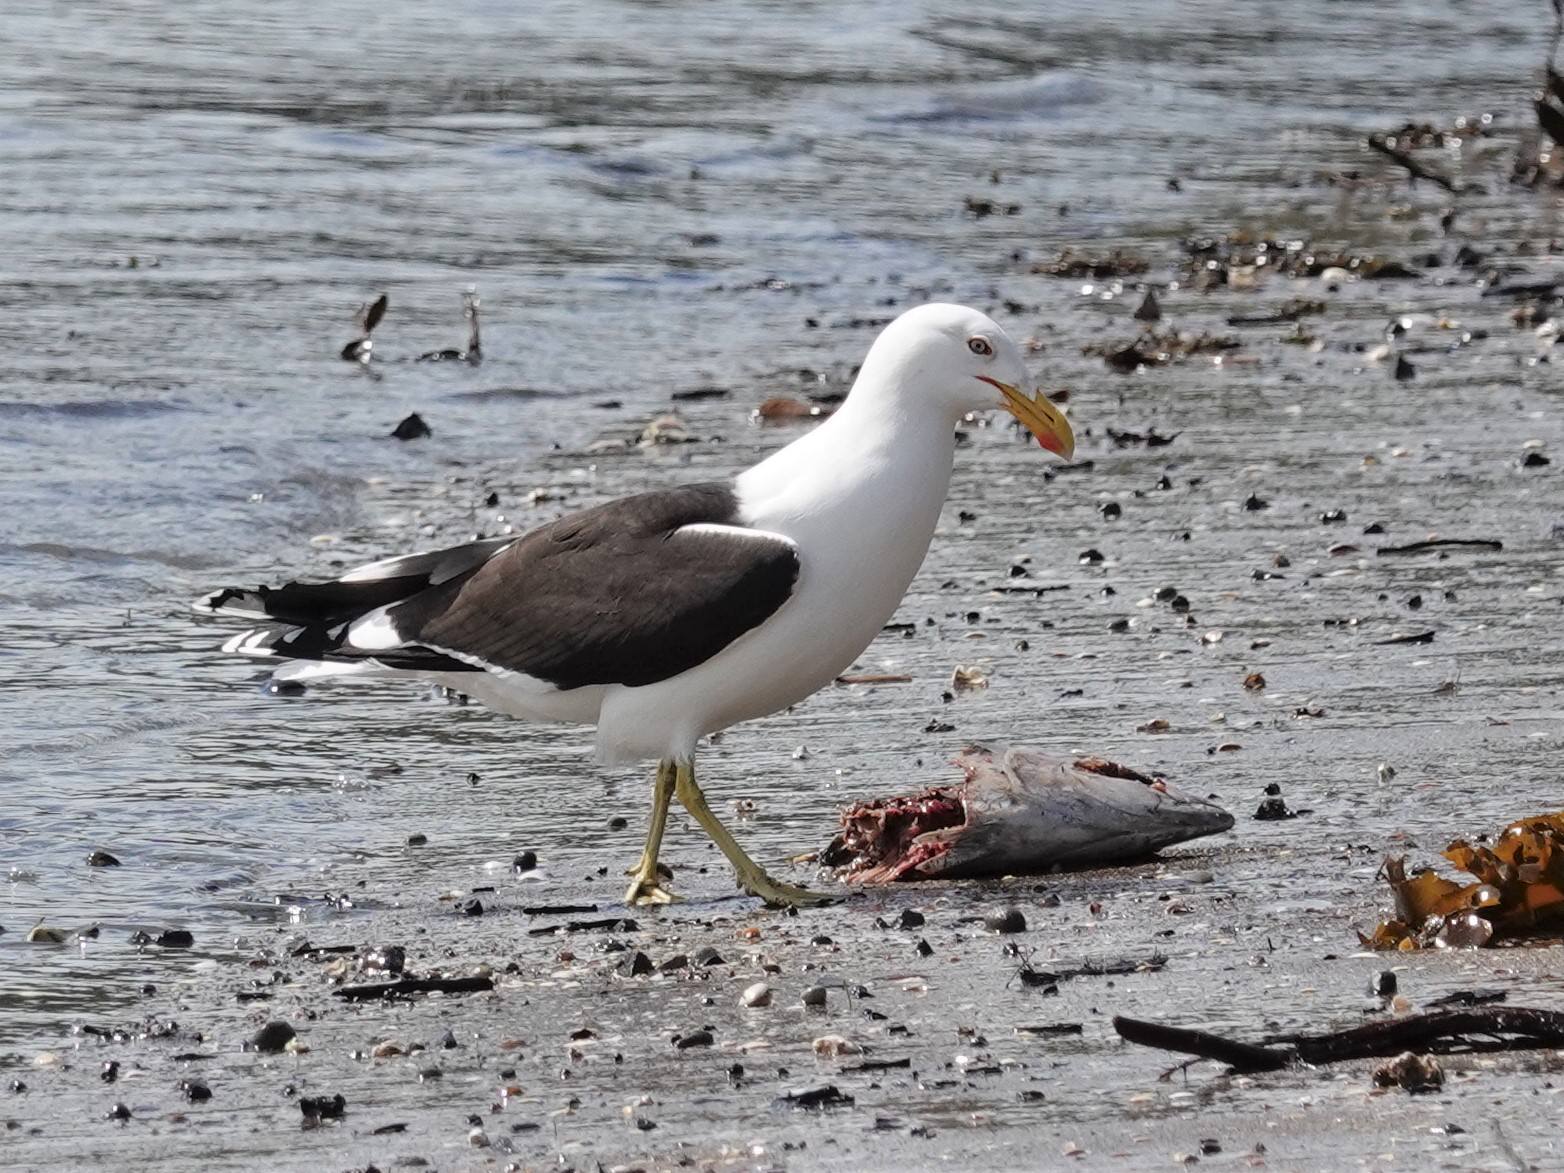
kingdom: Animalia
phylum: Chordata
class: Aves
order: Charadriiformes
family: Laridae
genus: Larus
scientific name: Larus dominicanus
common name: Kelp gull
